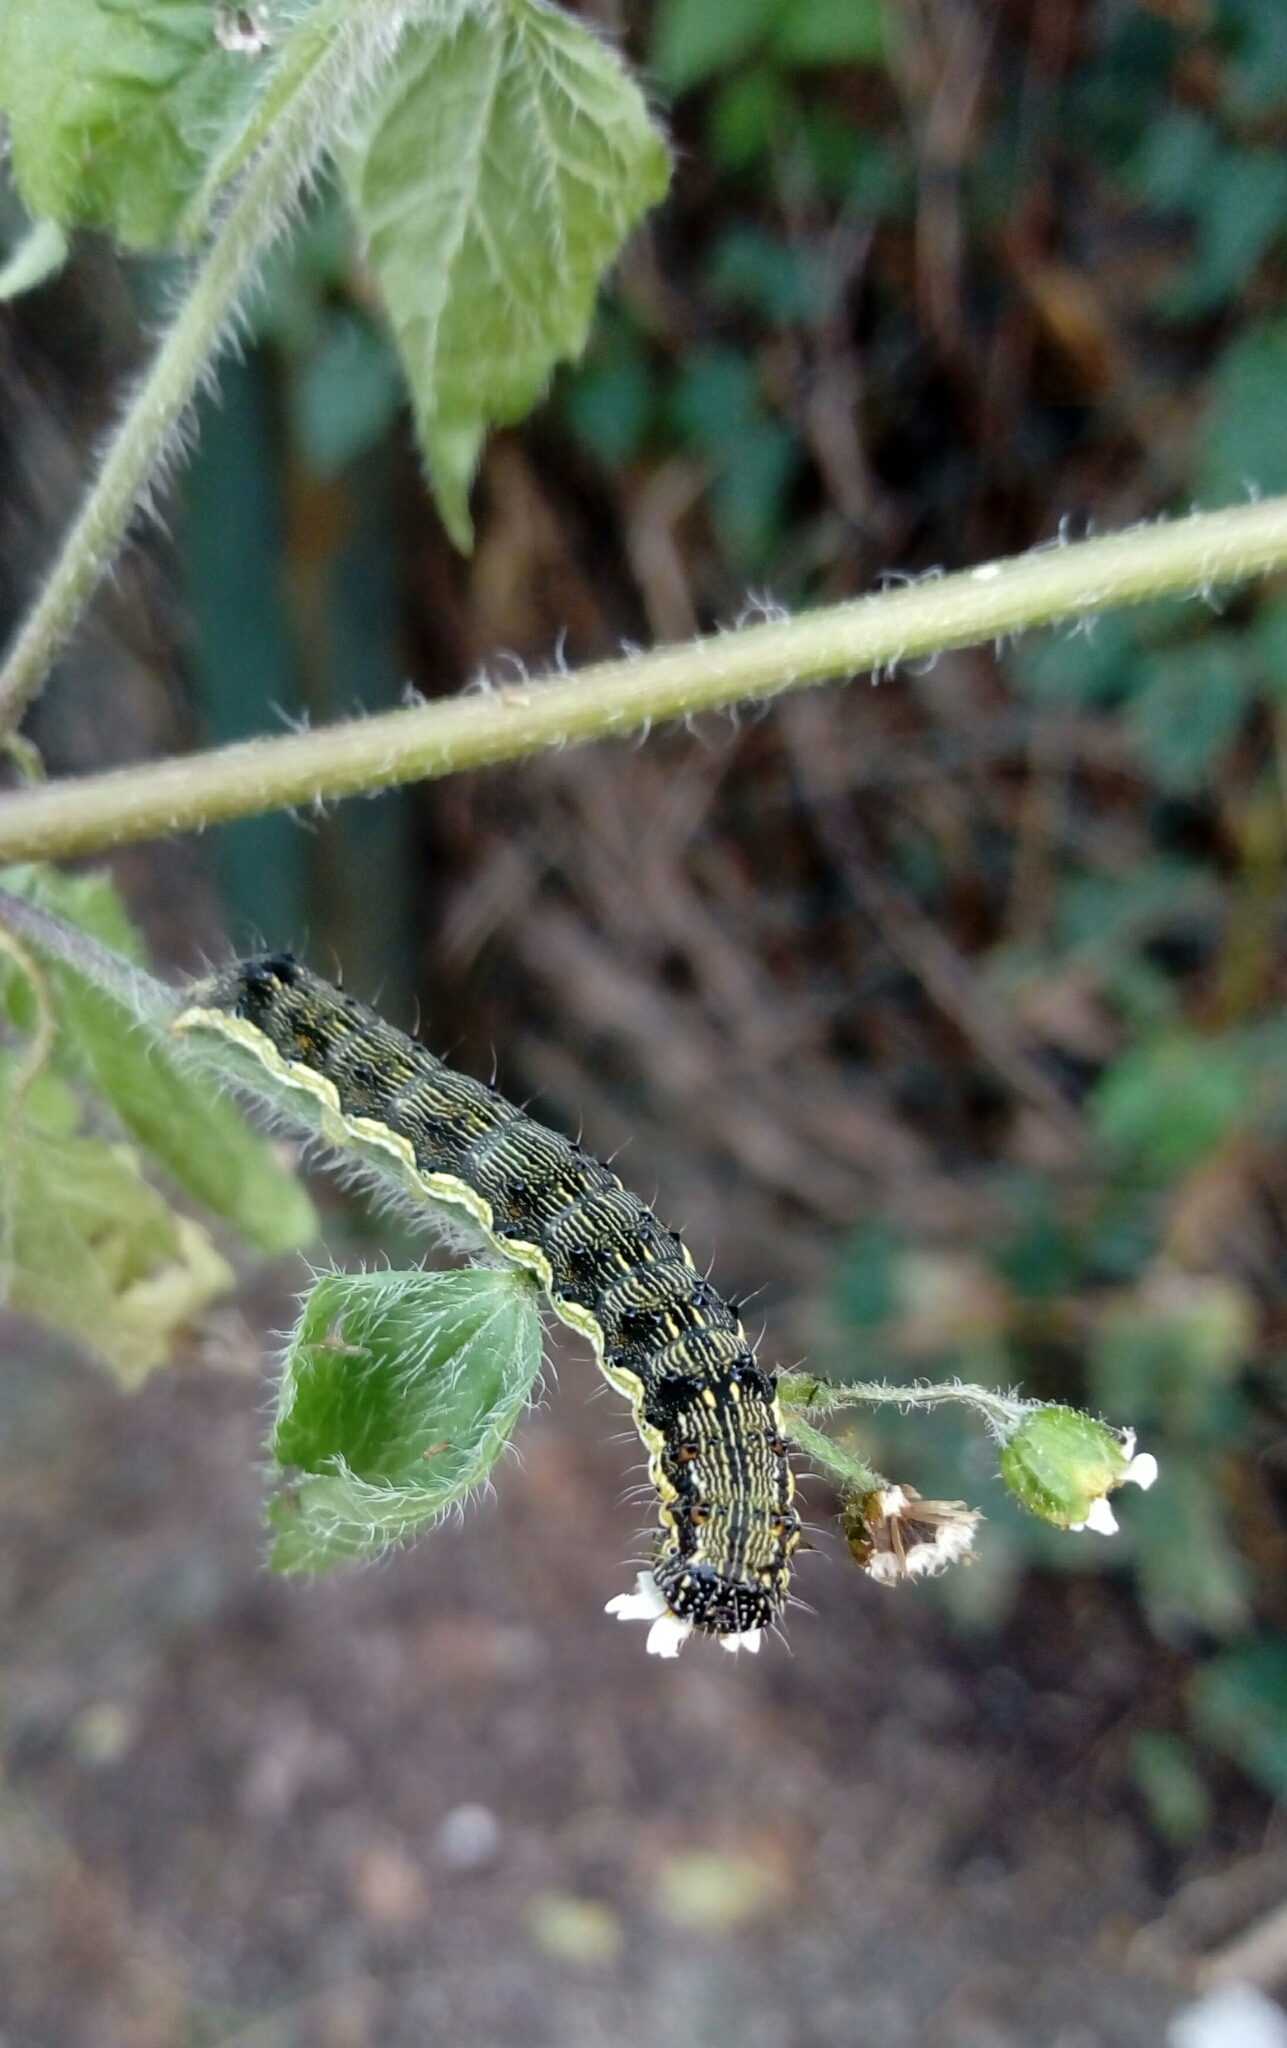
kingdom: Animalia
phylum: Arthropoda
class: Insecta
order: Lepidoptera
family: Noctuidae
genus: Helicoverpa
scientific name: Helicoverpa armigera
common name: Cotton bollworm
